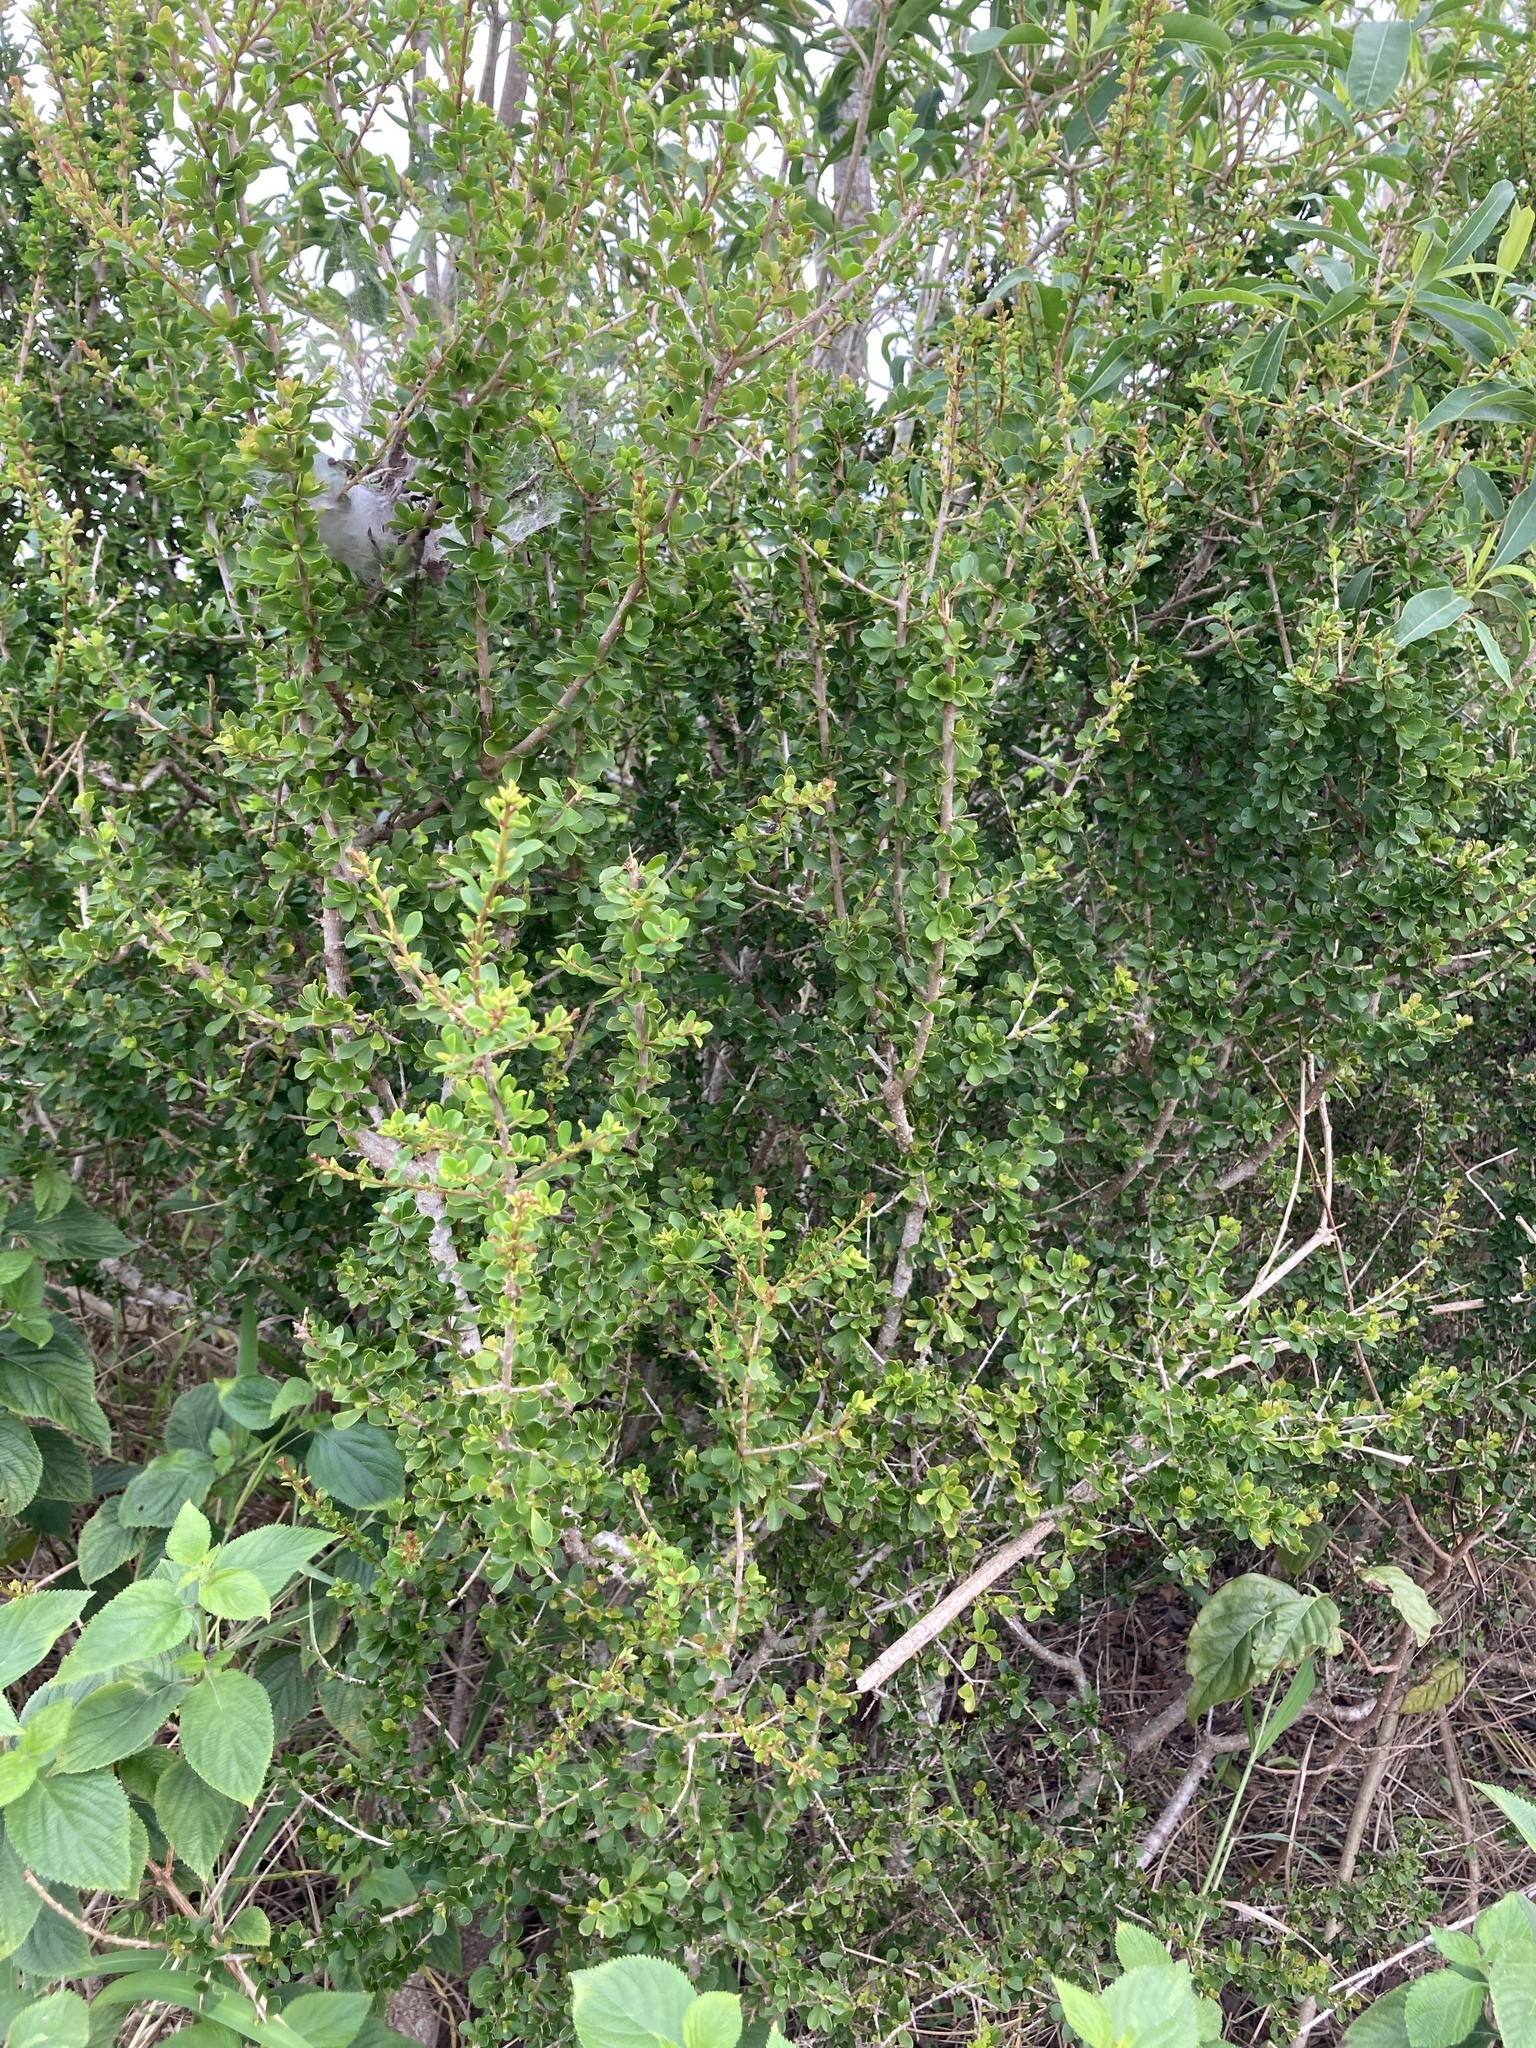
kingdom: Plantae
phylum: Tracheophyta
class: Magnoliopsida
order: Apiales
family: Pittosporaceae
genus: Pittosporum
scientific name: Pittosporum spinescens
